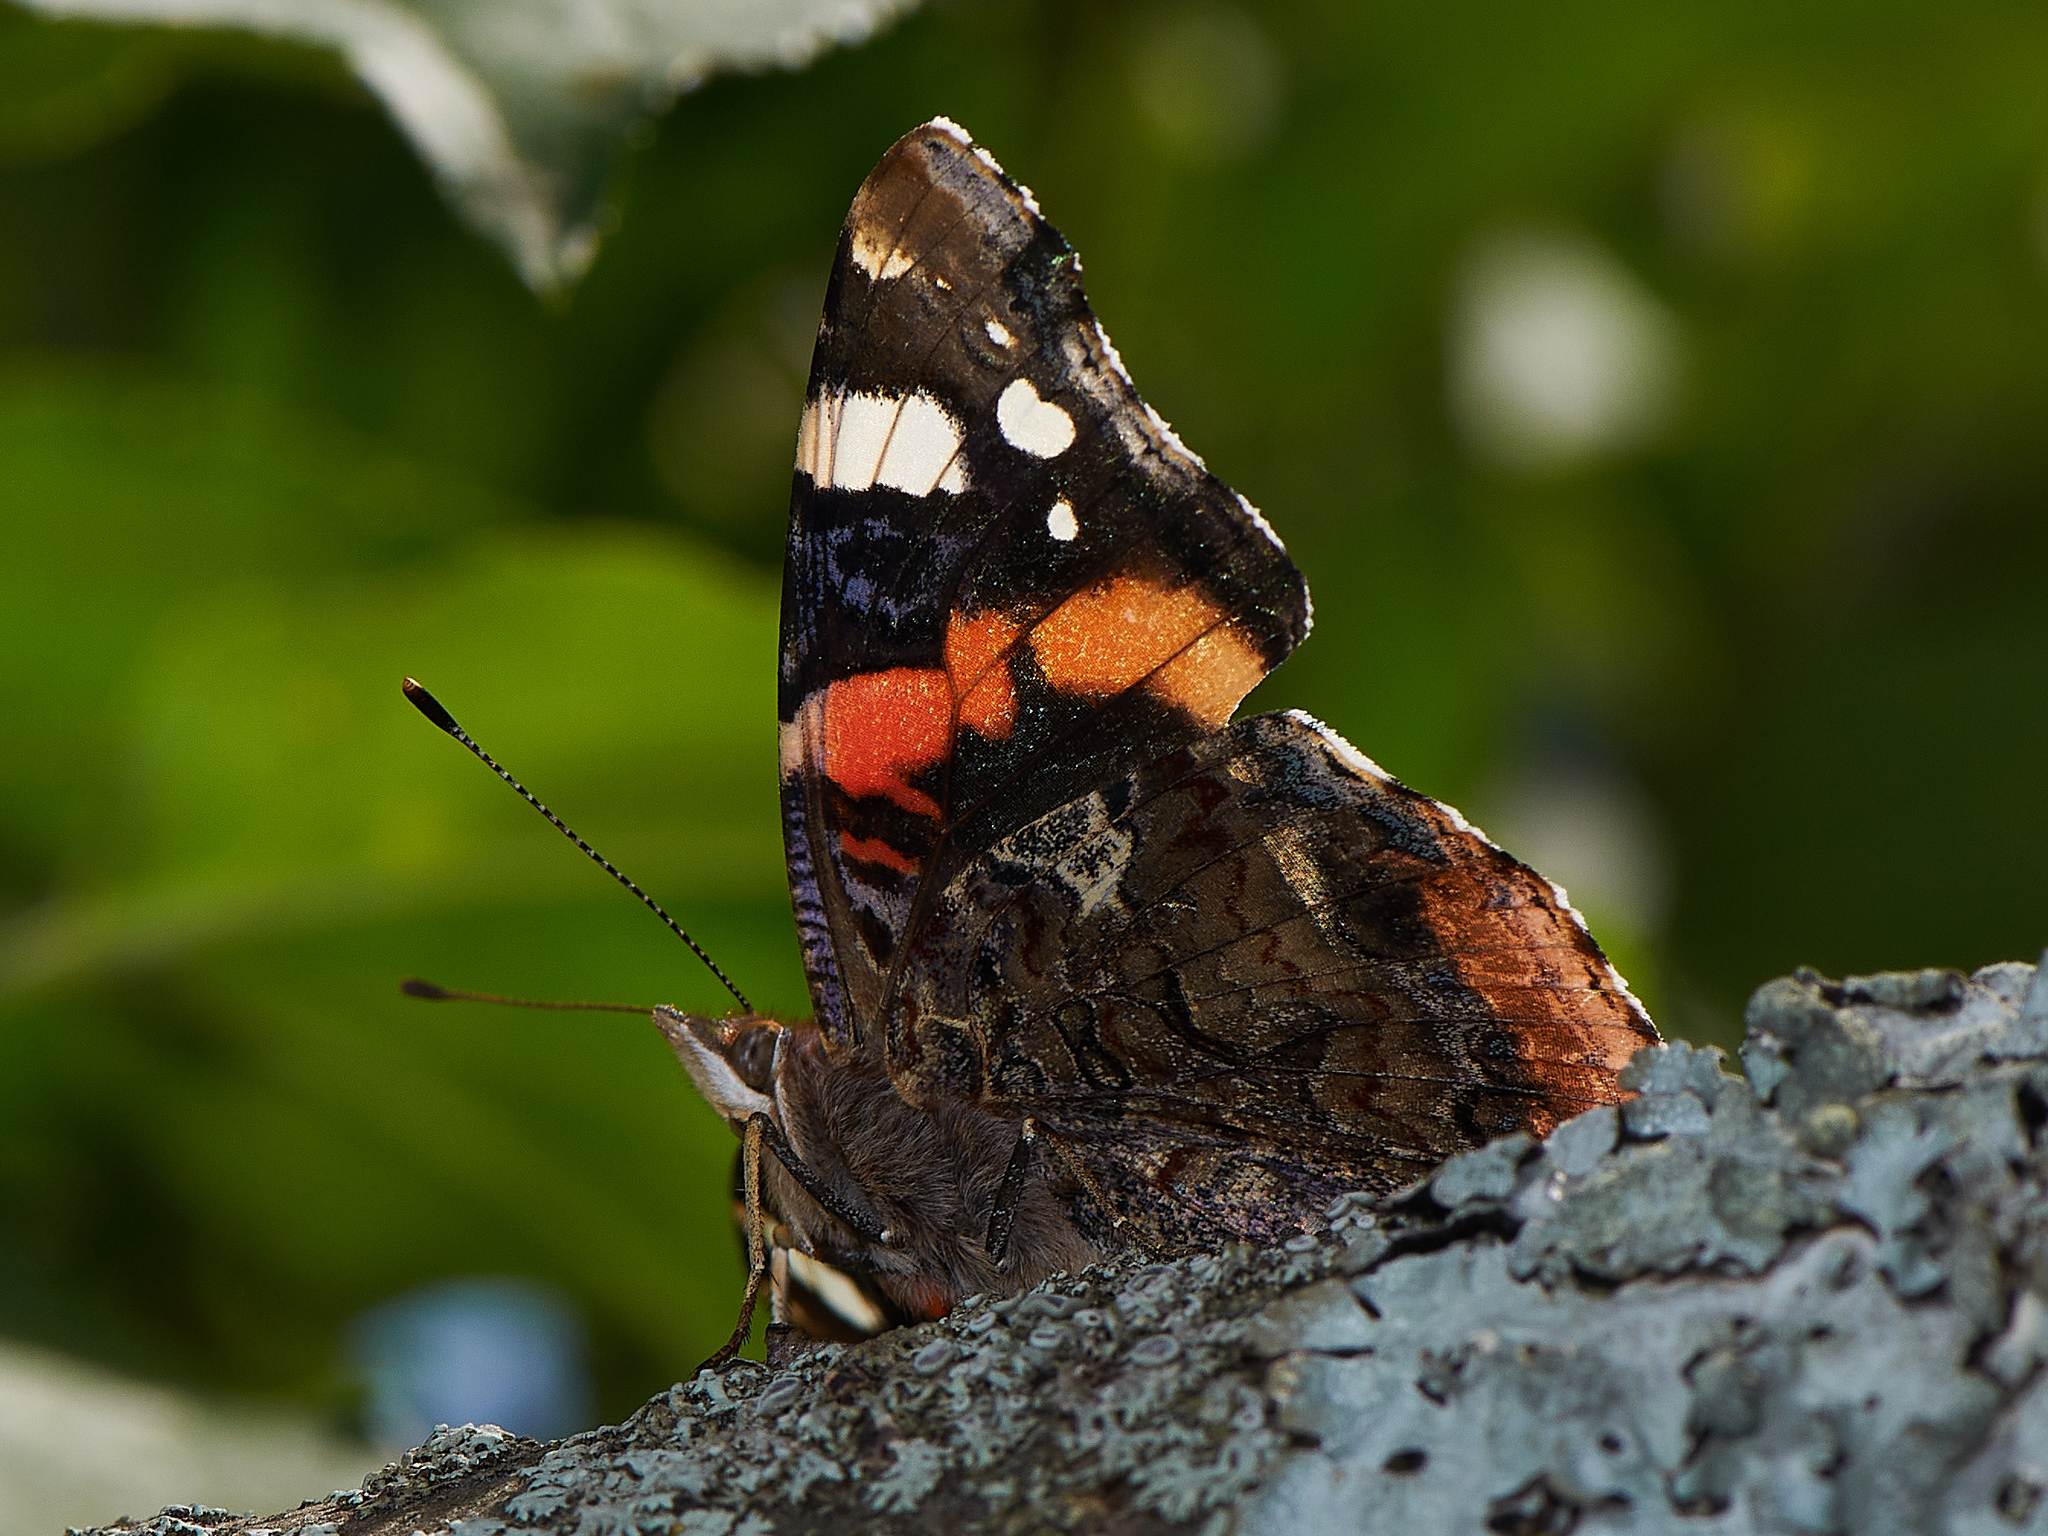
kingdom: Animalia
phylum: Arthropoda
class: Insecta
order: Lepidoptera
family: Nymphalidae
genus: Vanessa
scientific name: Vanessa atalanta
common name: Red admiral
